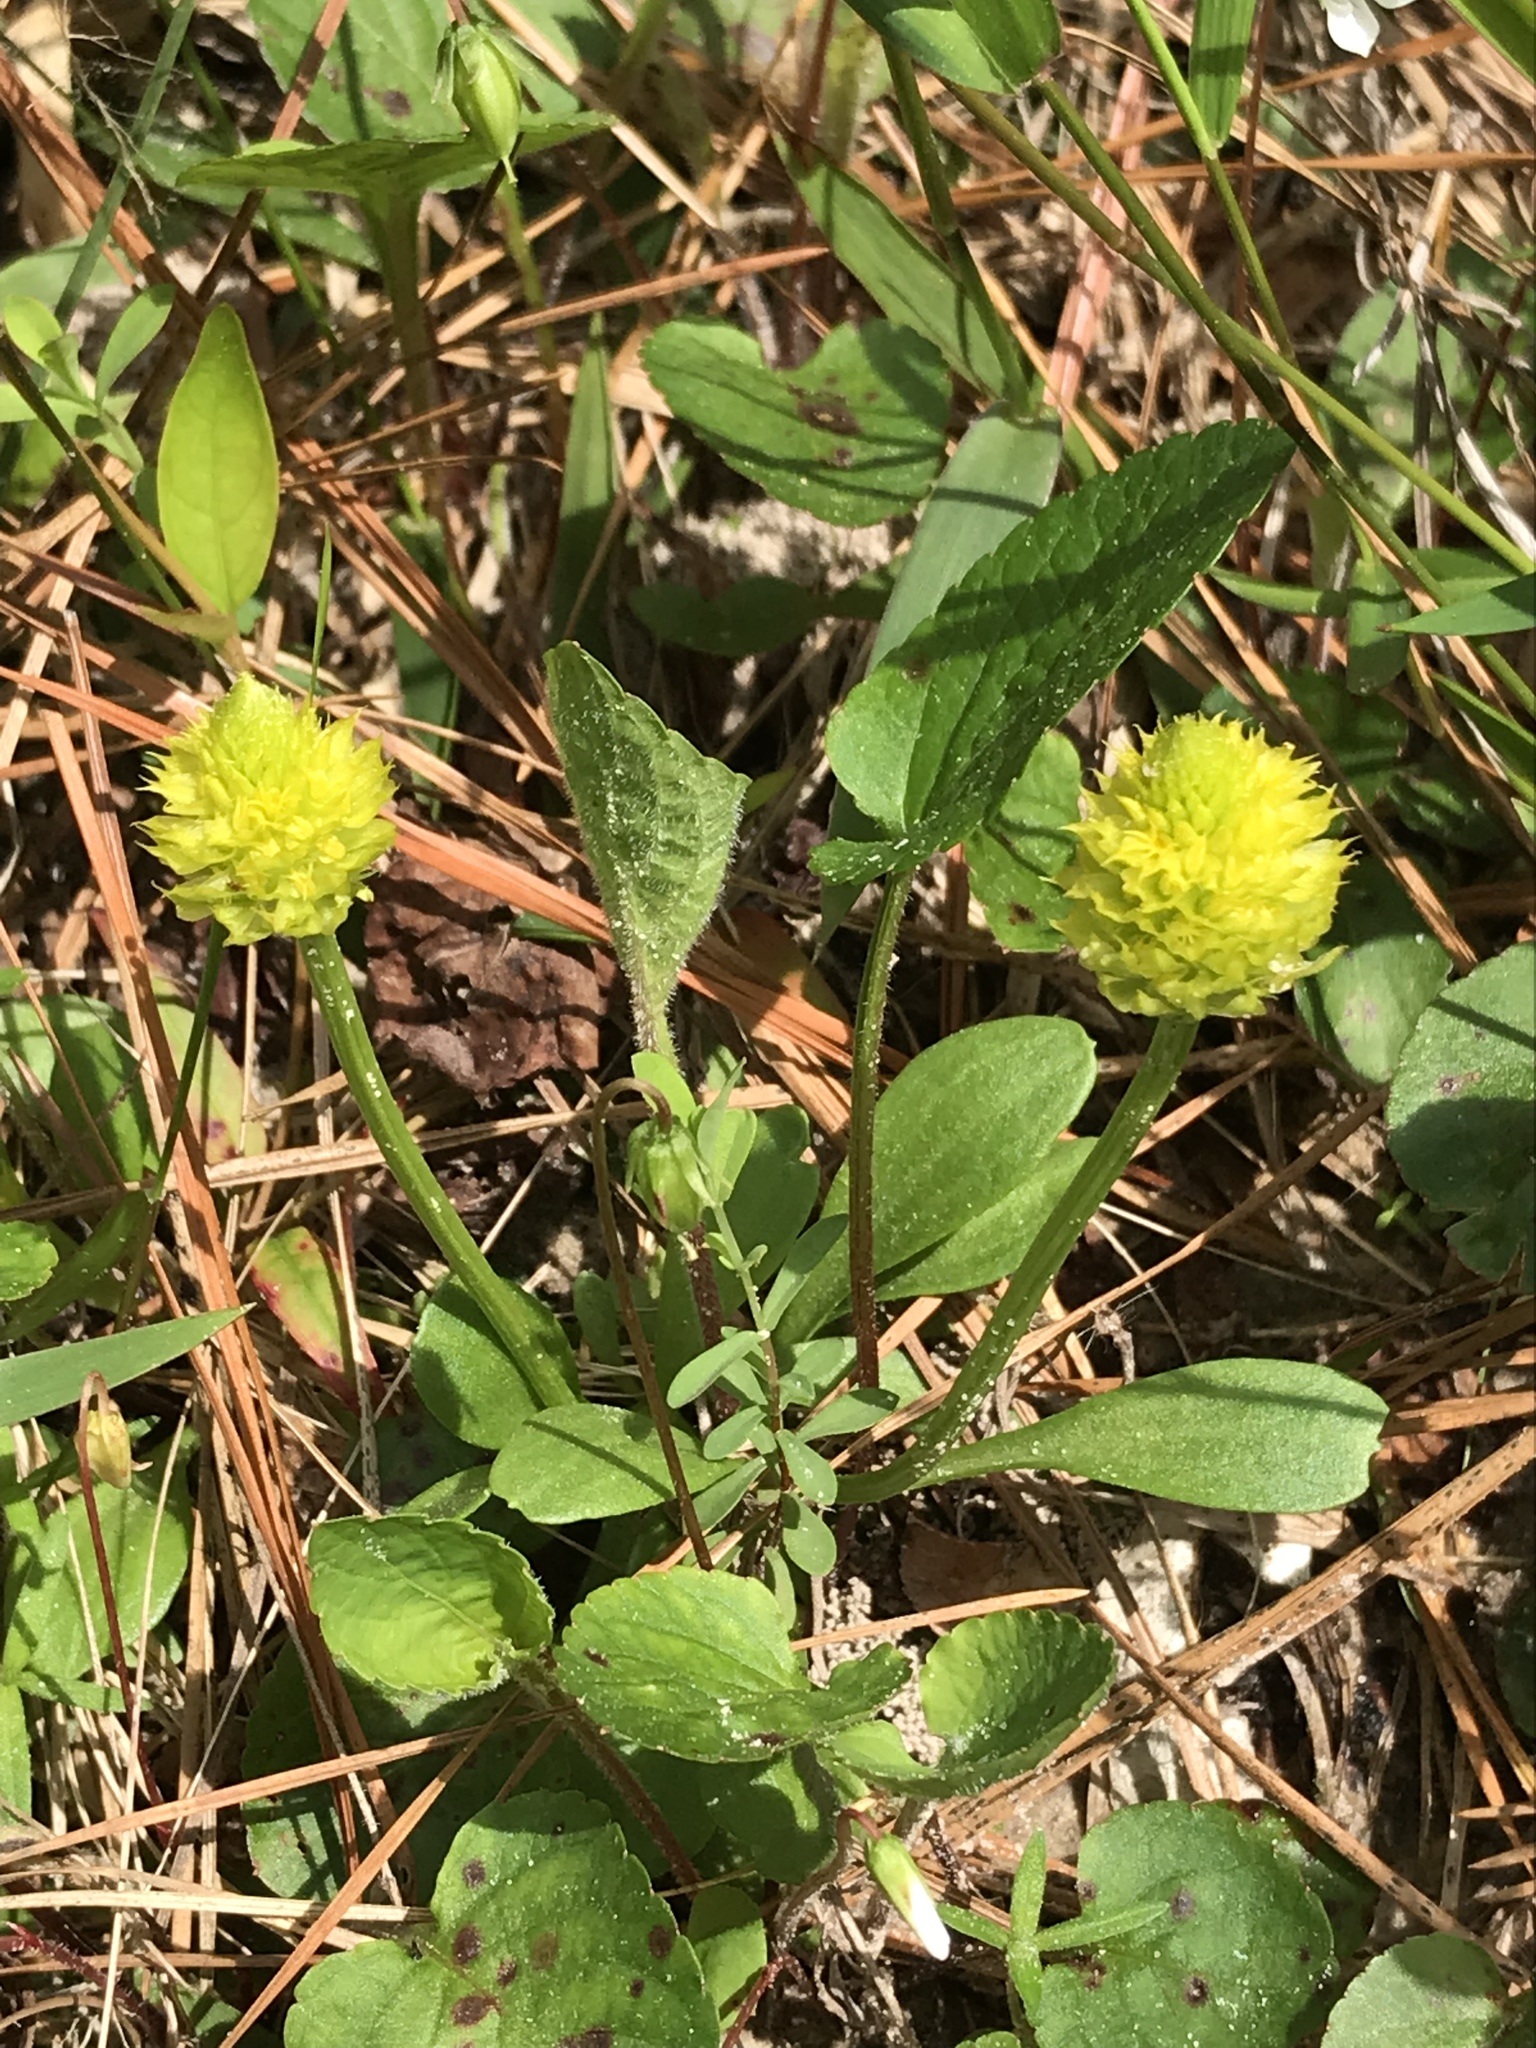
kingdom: Plantae
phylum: Tracheophyta
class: Magnoliopsida
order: Fabales
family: Polygalaceae
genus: Polygala
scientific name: Polygala nana
